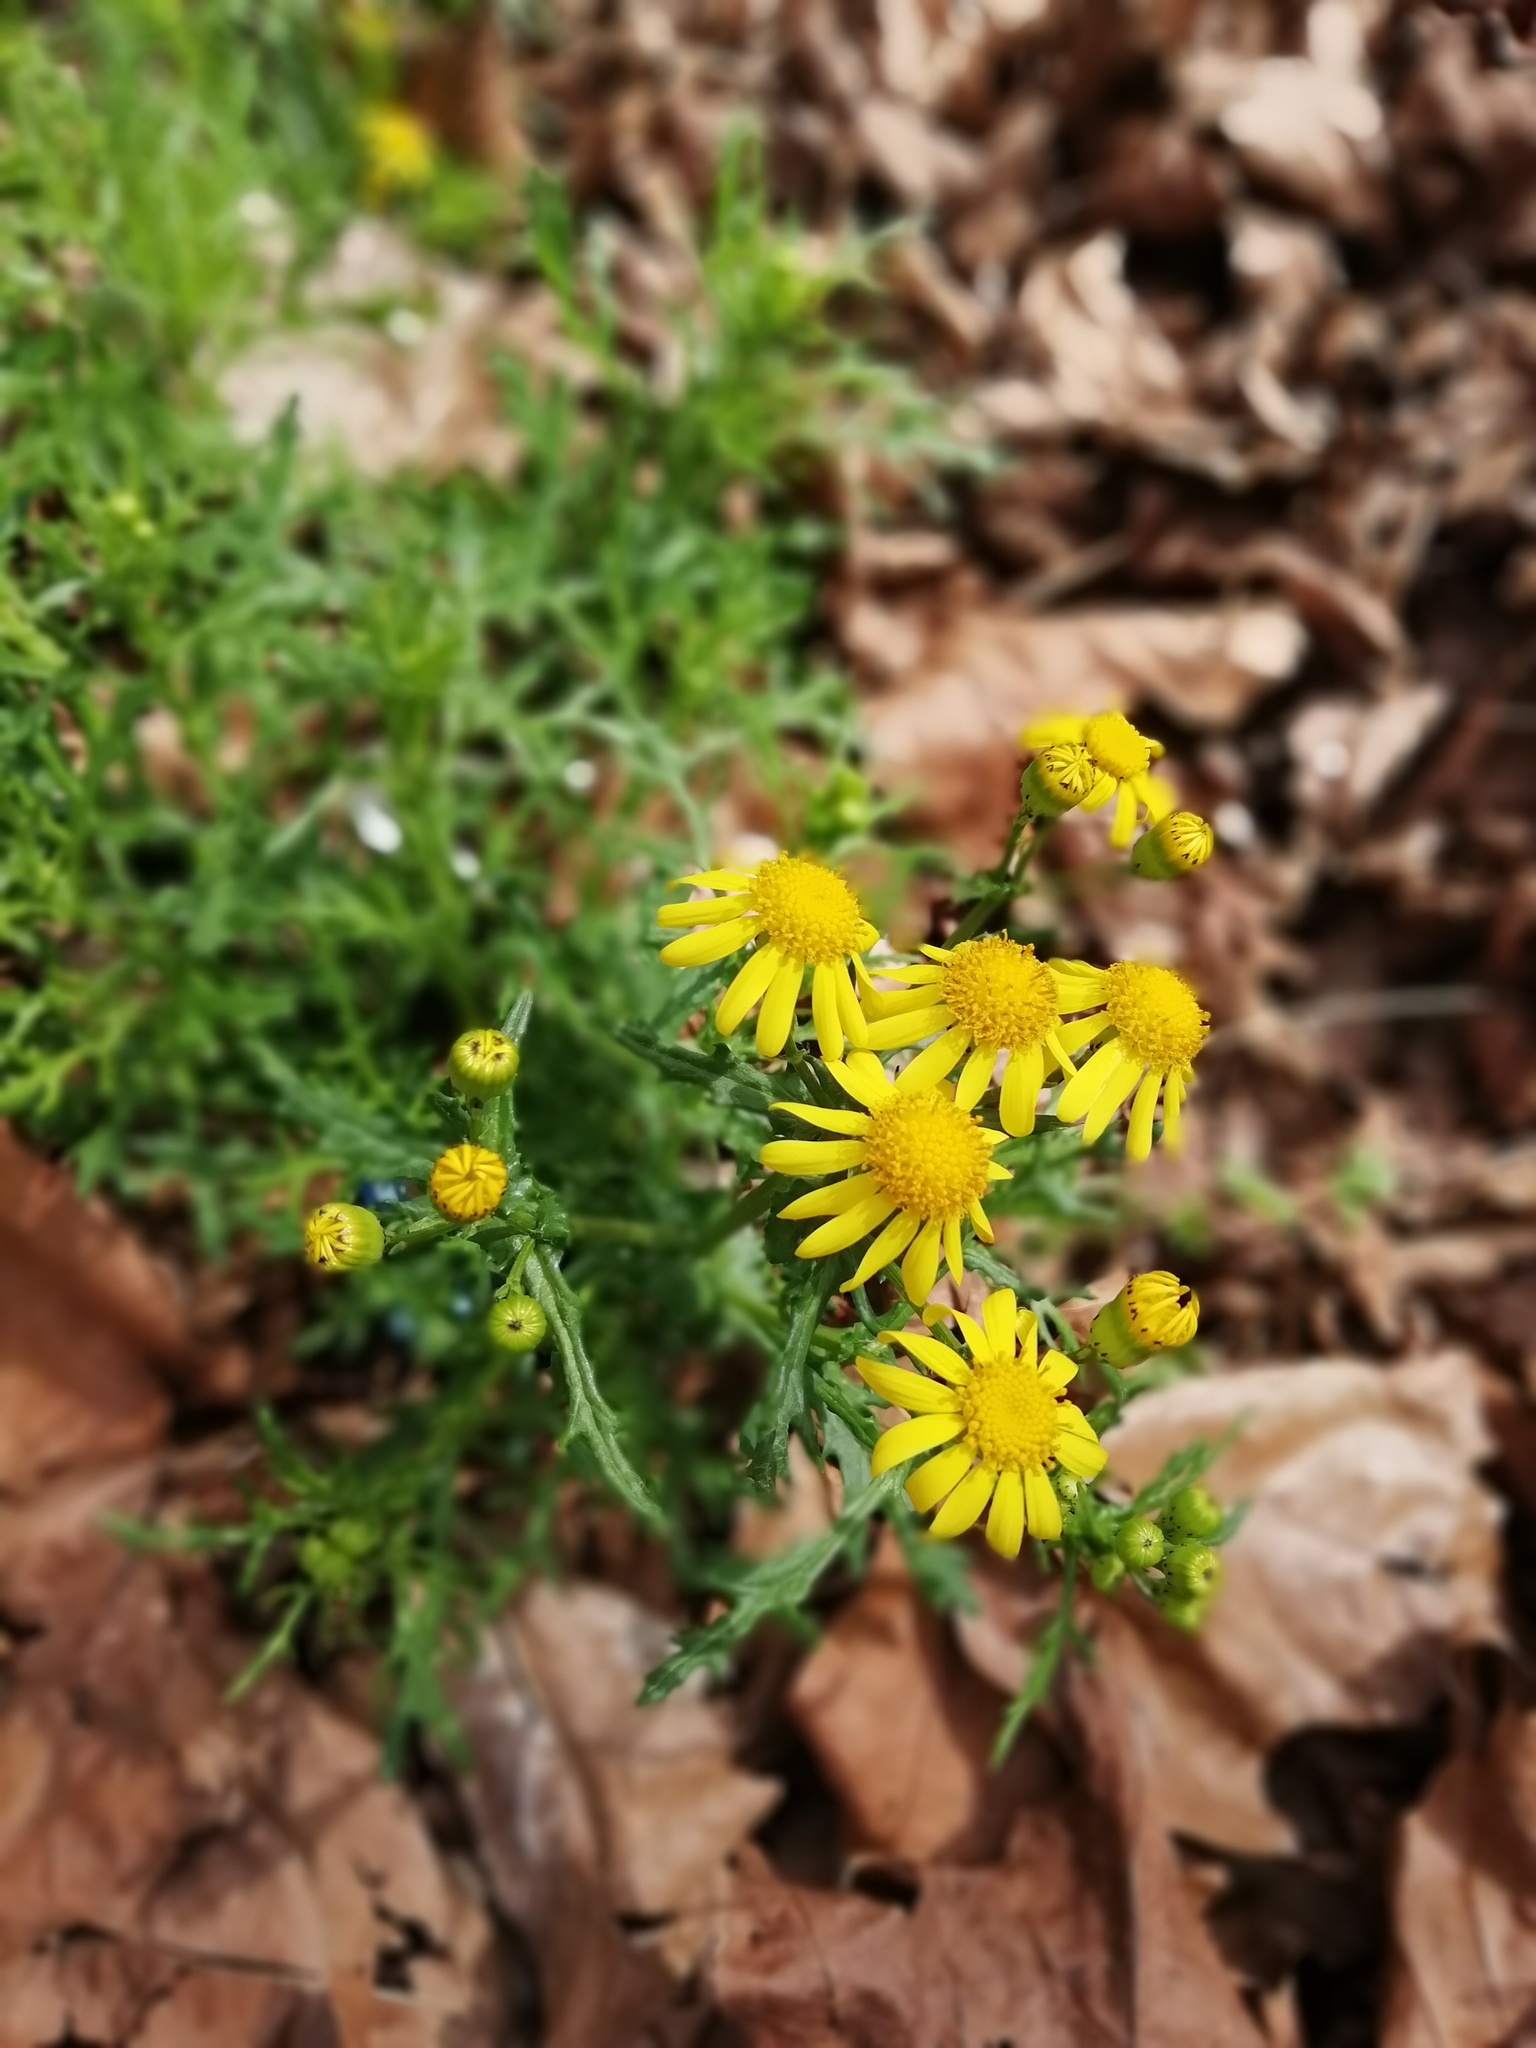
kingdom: Plantae
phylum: Tracheophyta
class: Magnoliopsida
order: Asterales
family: Asteraceae
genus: Senecio
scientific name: Senecio squalidus
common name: Oxford ragwort
